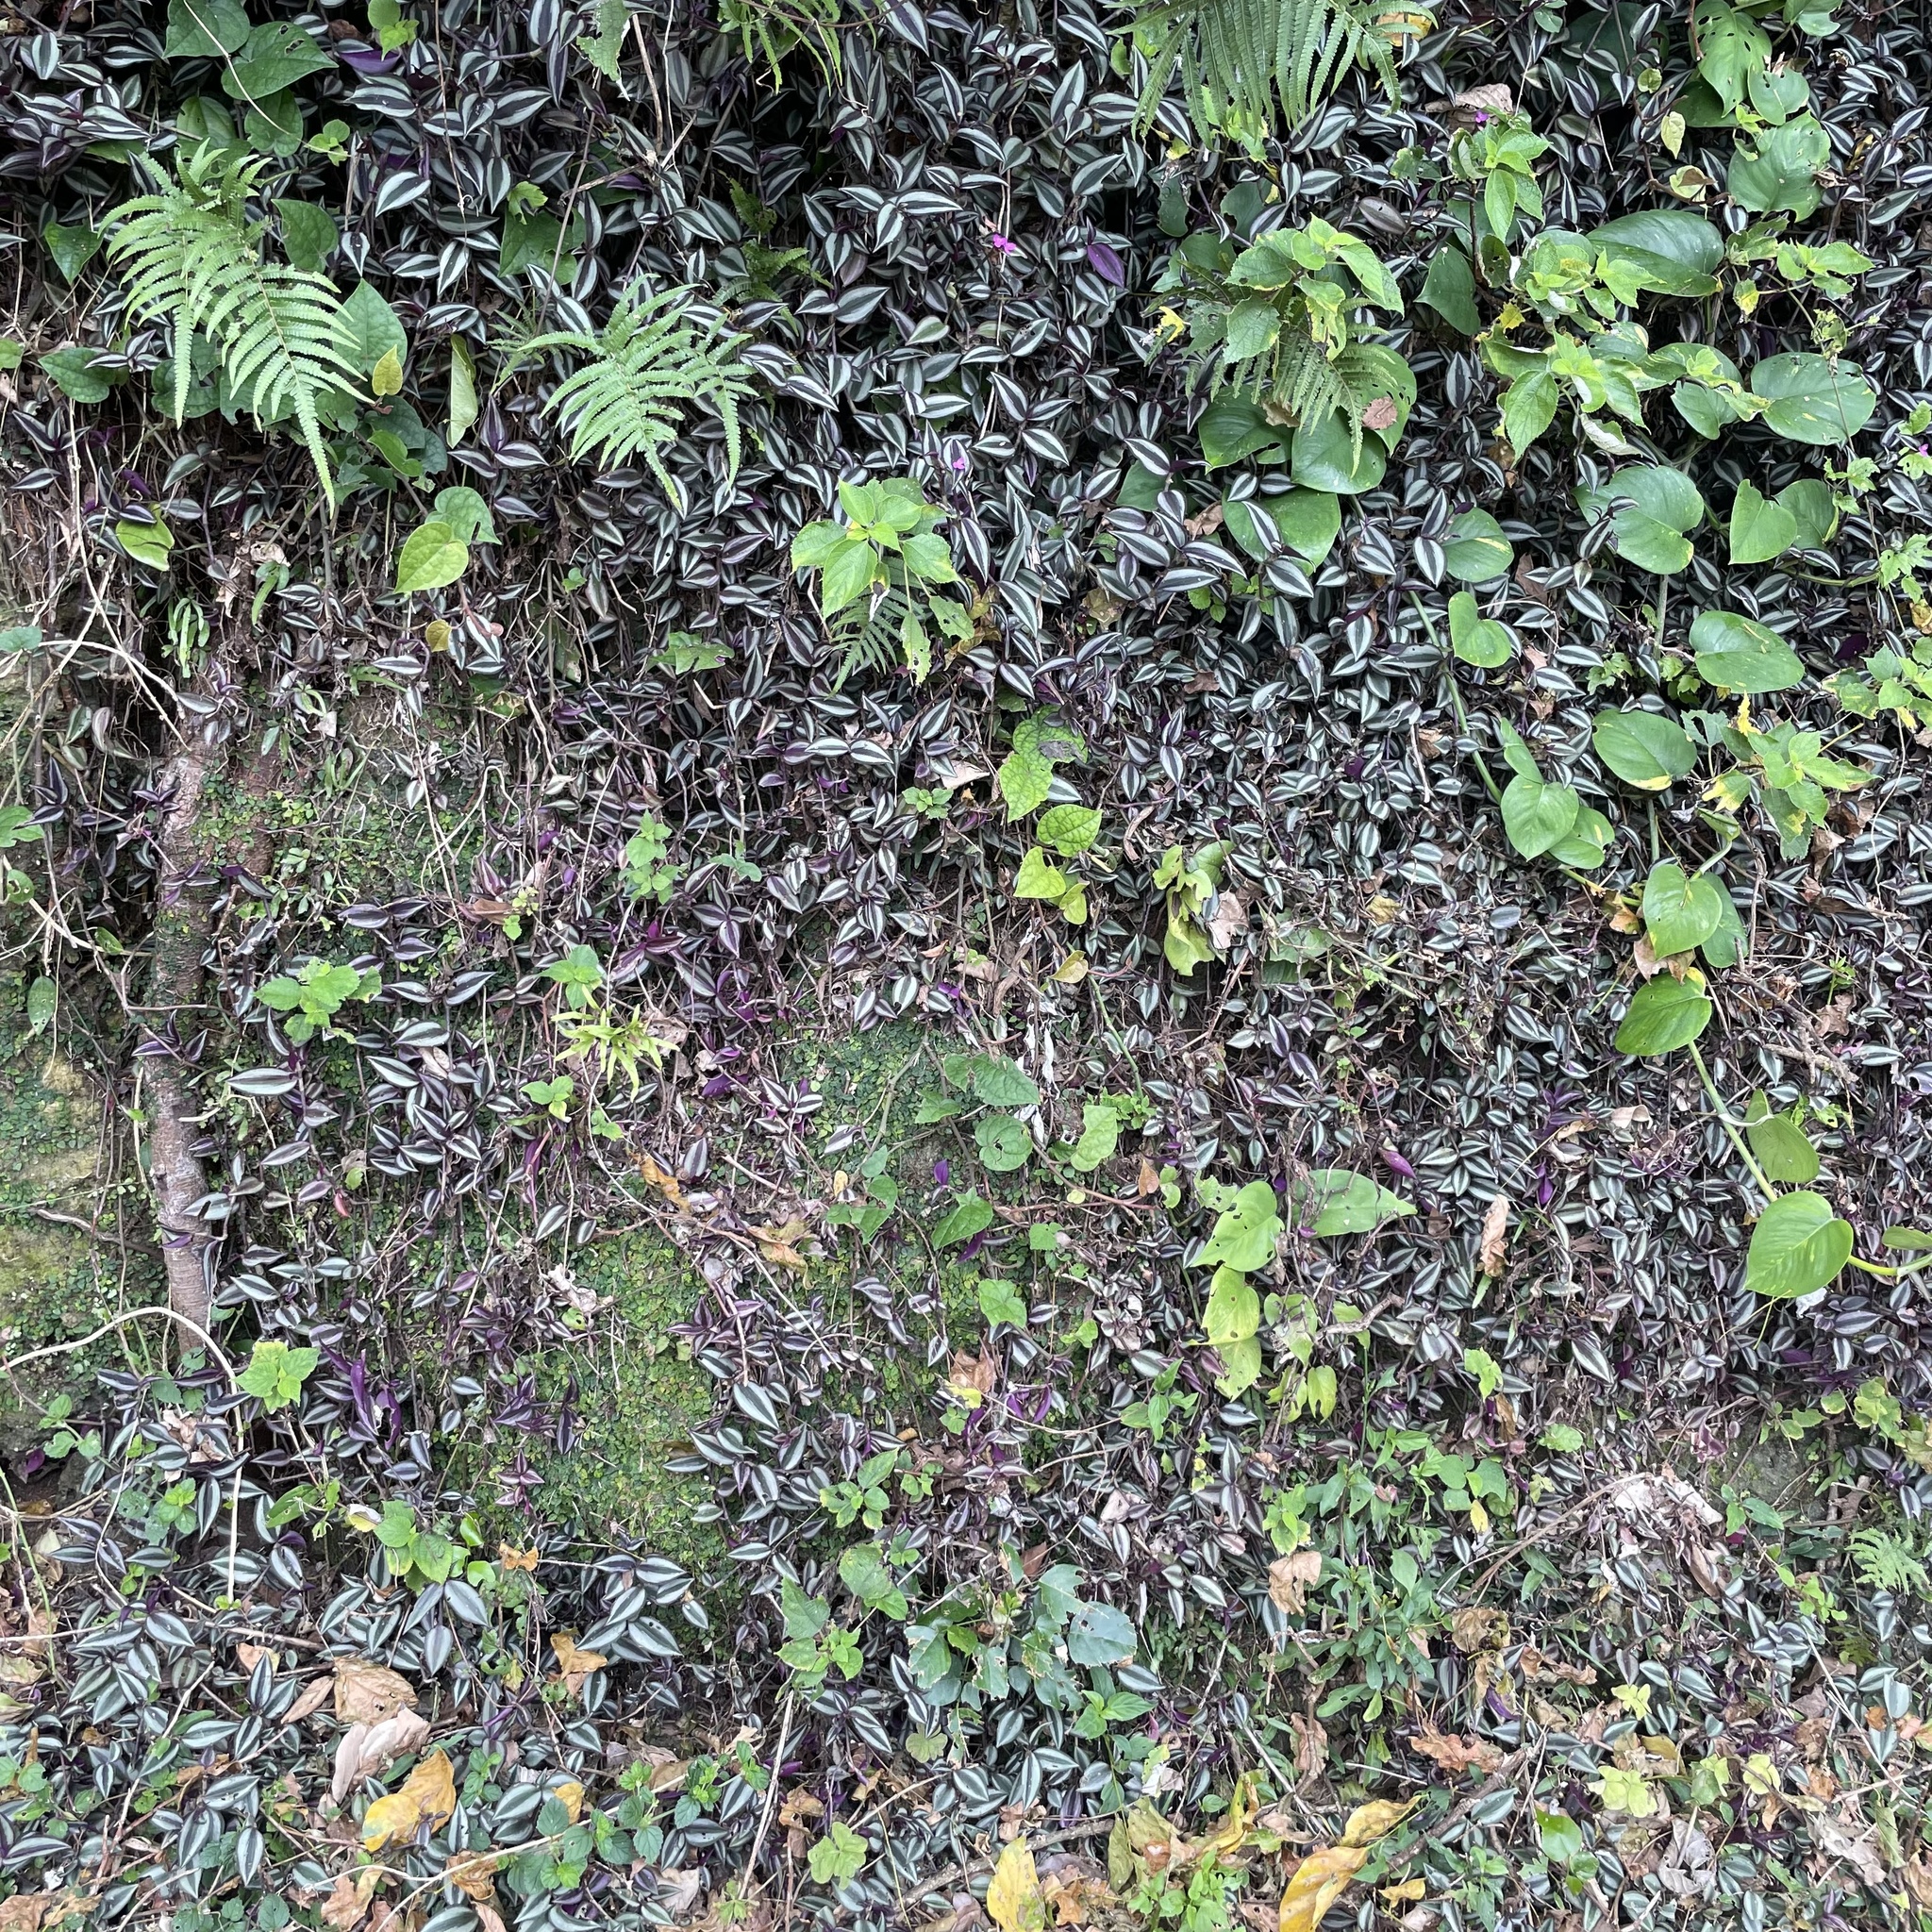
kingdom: Plantae
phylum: Tracheophyta
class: Liliopsida
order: Commelinales
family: Commelinaceae
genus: Tradescantia
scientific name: Tradescantia zebrina
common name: Inchplant
